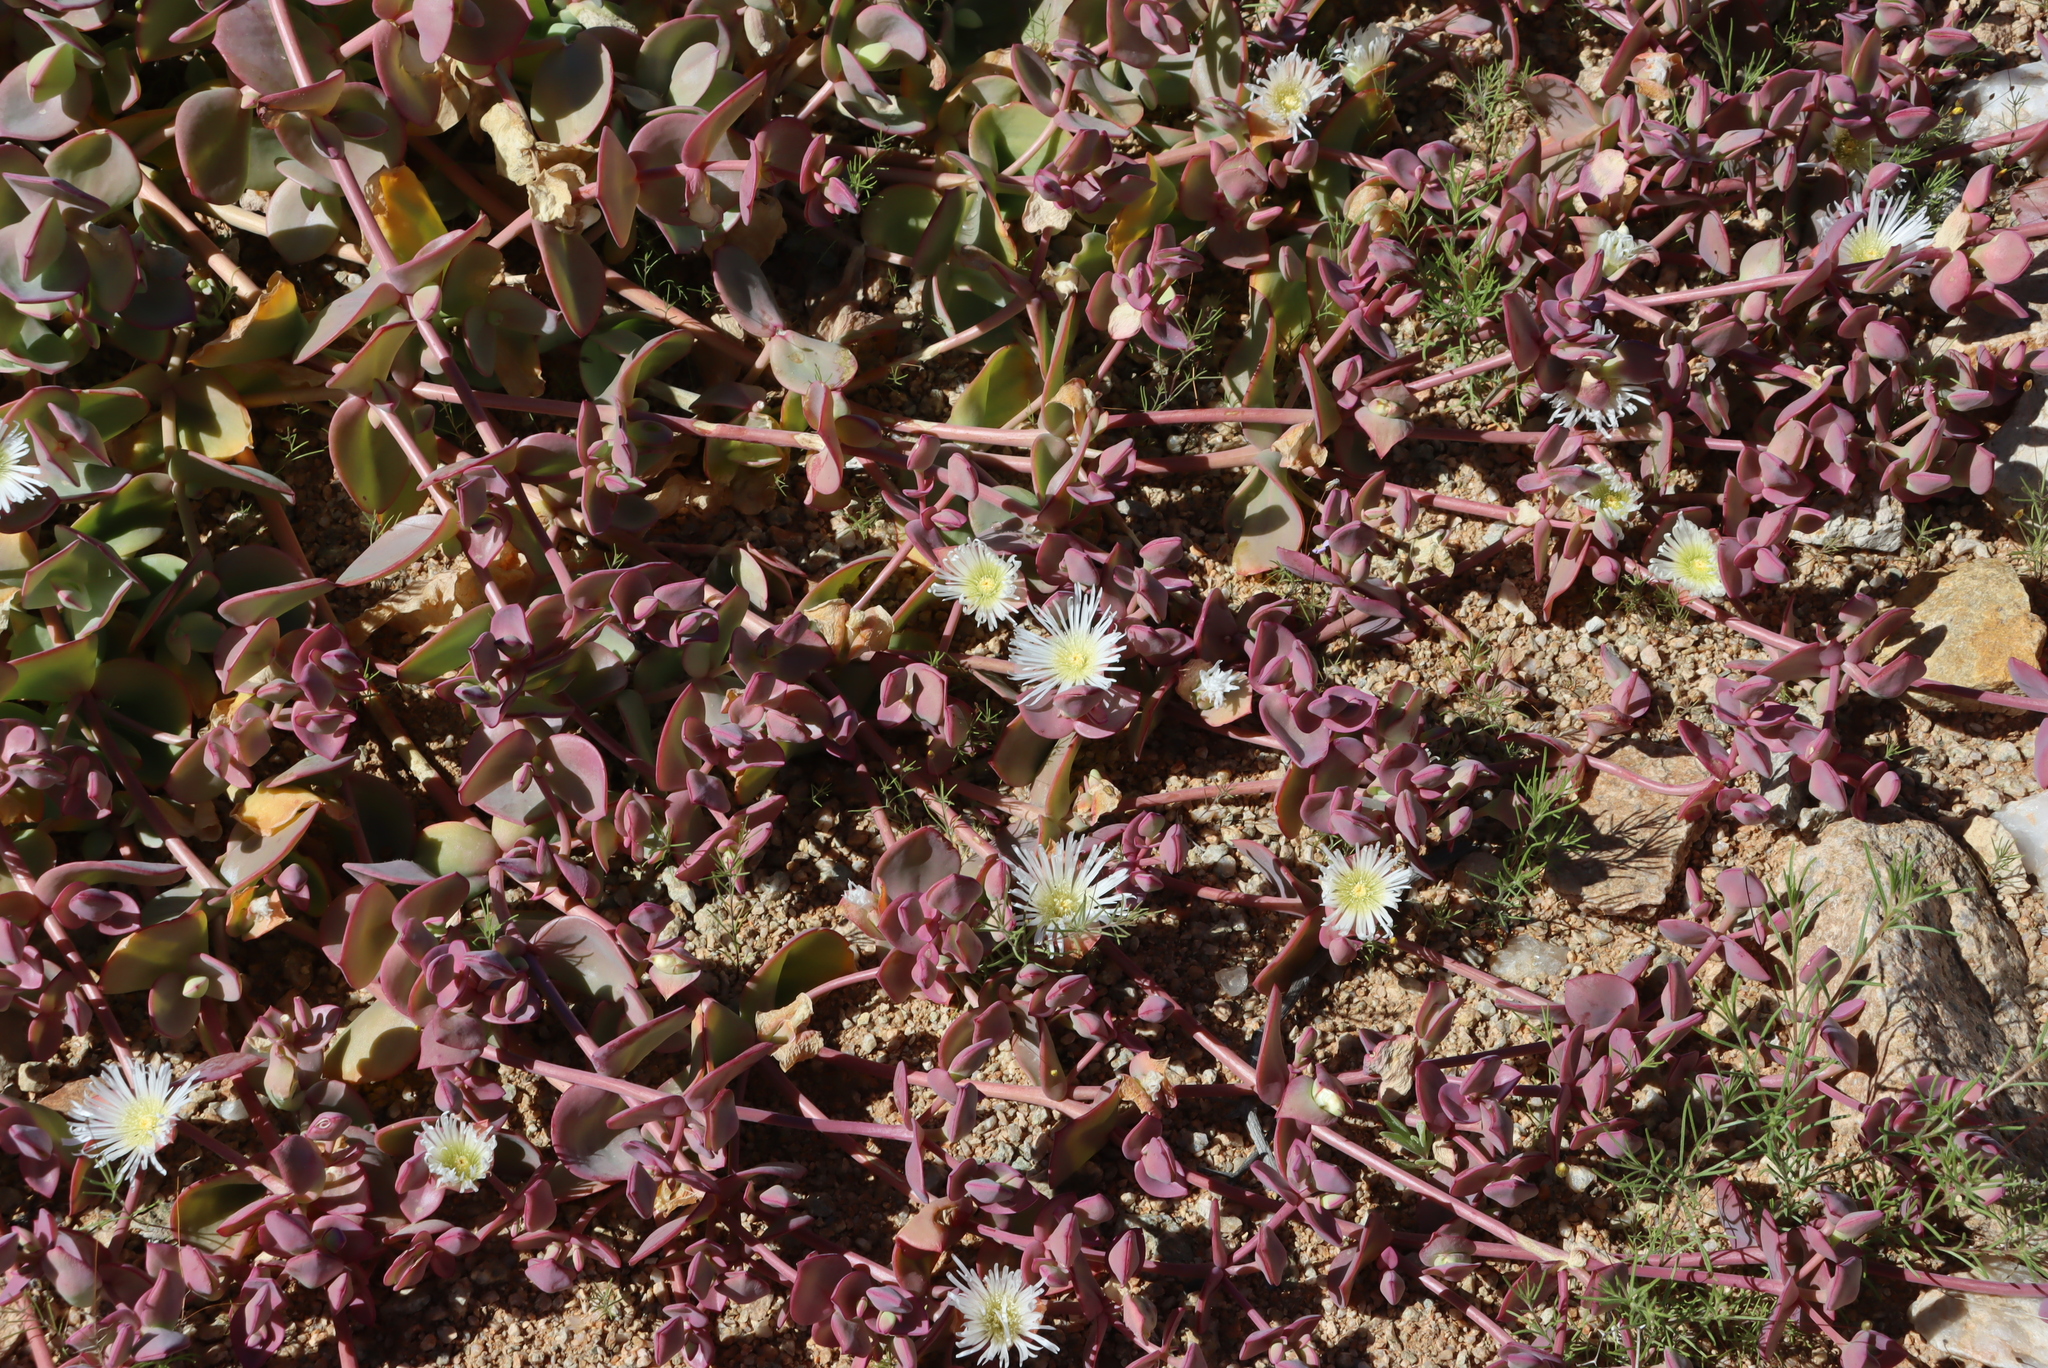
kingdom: Plantae
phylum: Tracheophyta
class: Magnoliopsida
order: Caryophyllales
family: Aizoaceae
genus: Mesembryanthemum
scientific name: Mesembryanthemum sladenianum
